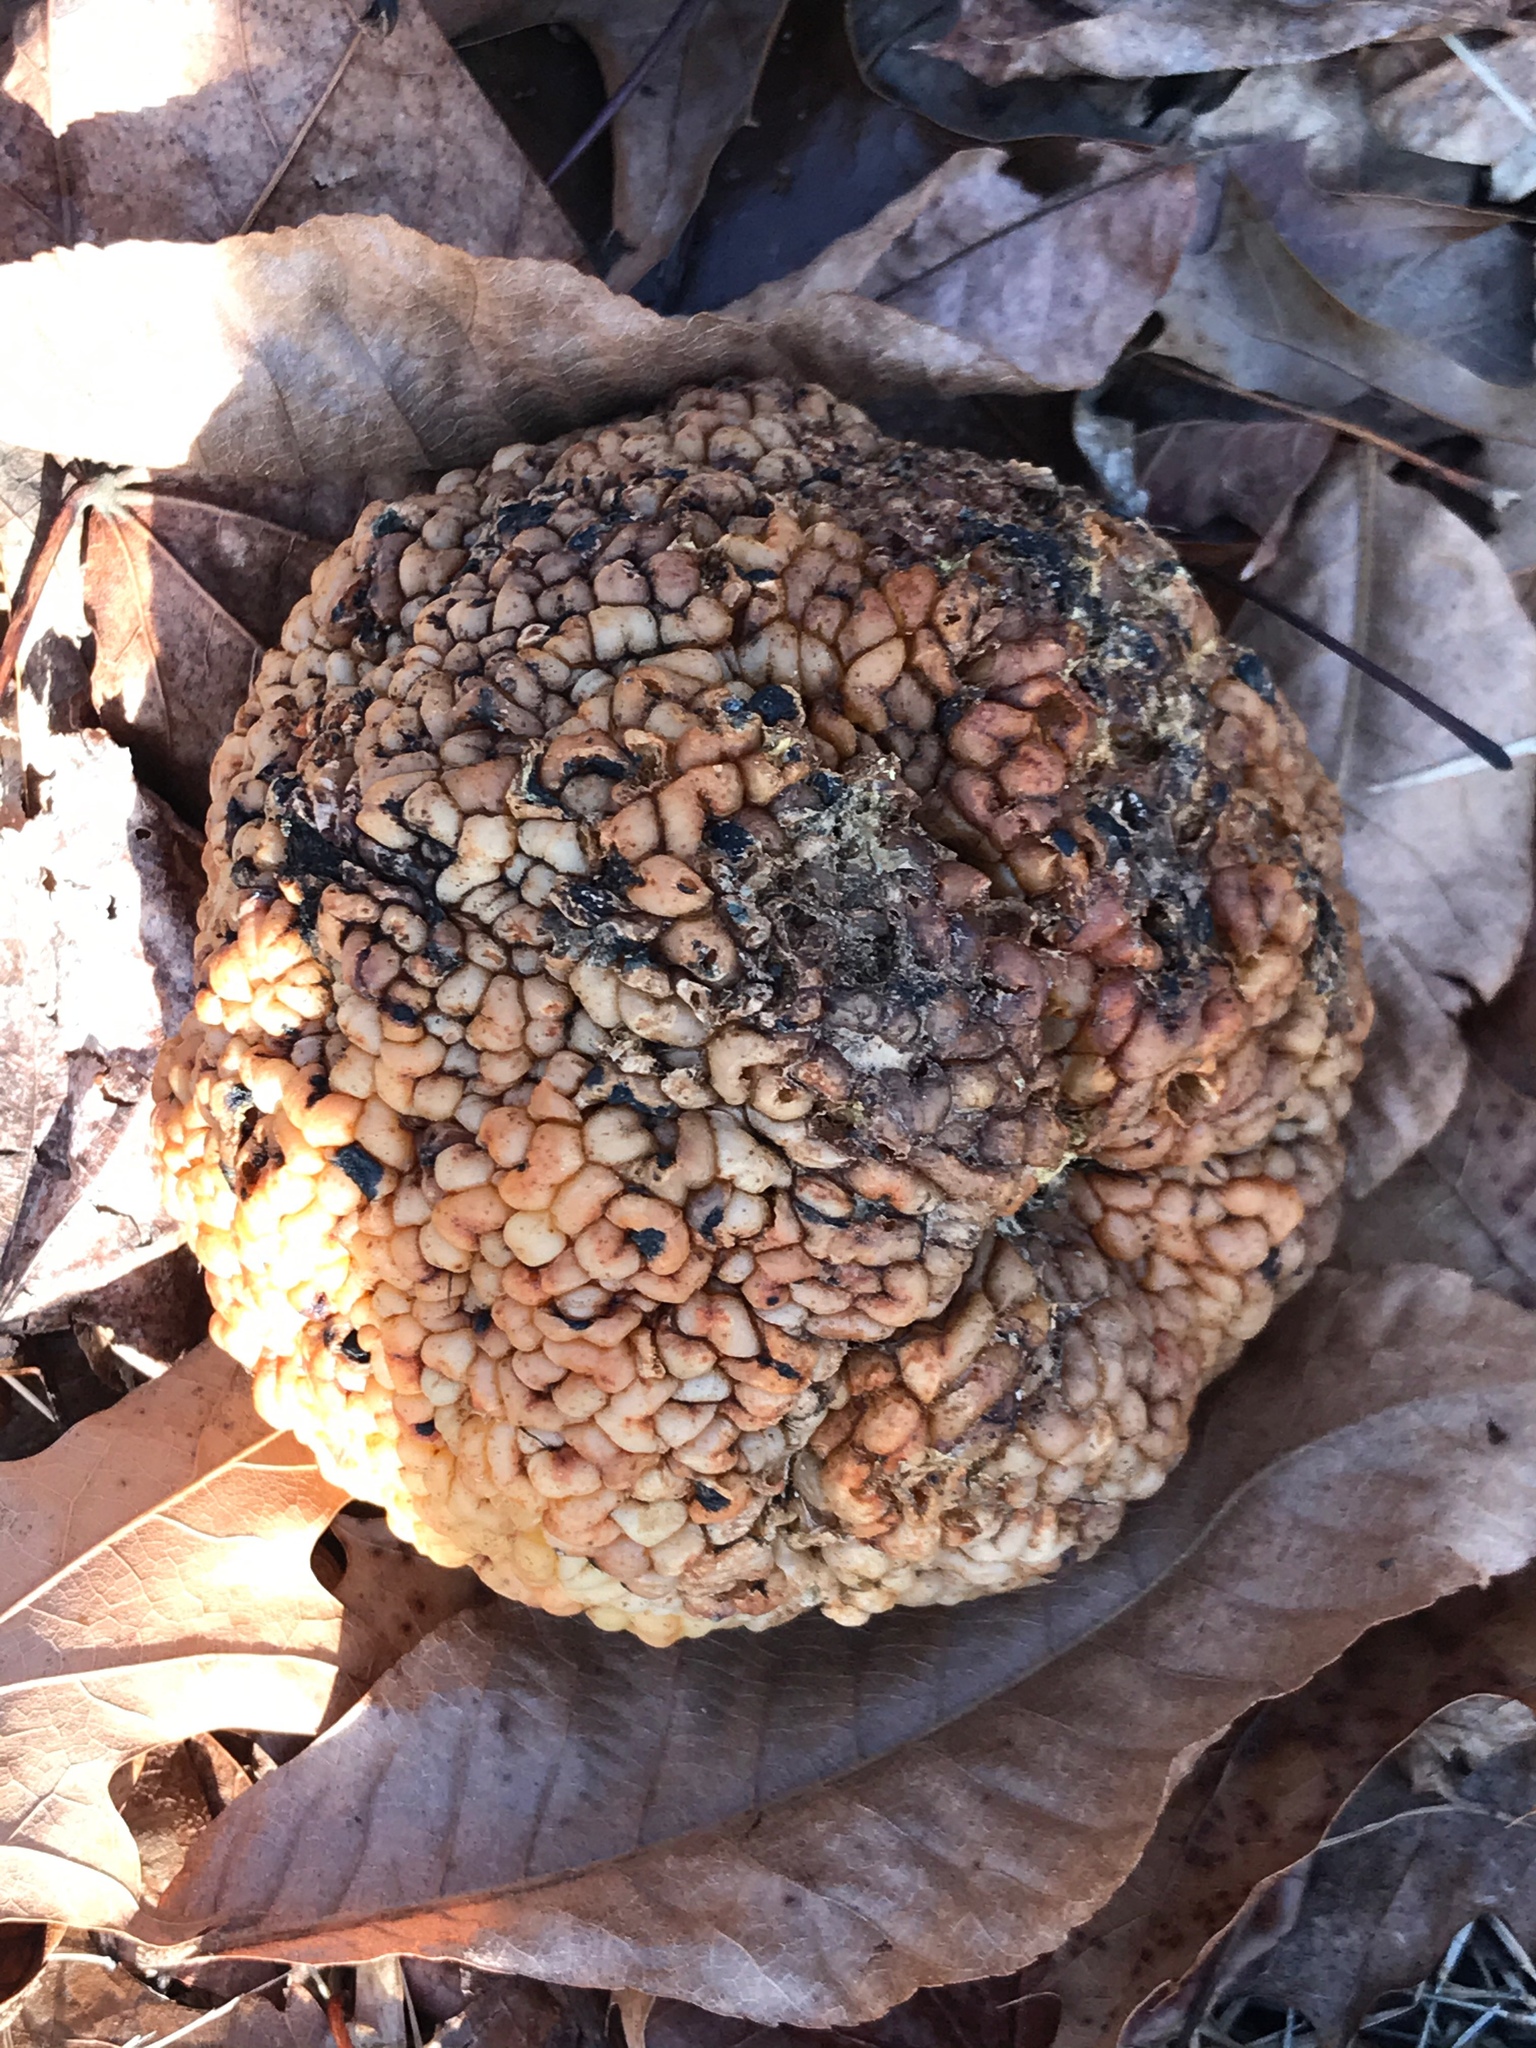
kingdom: Plantae
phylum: Tracheophyta
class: Magnoliopsida
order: Rosales
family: Moraceae
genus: Maclura
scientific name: Maclura pomifera
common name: Osage-orange
